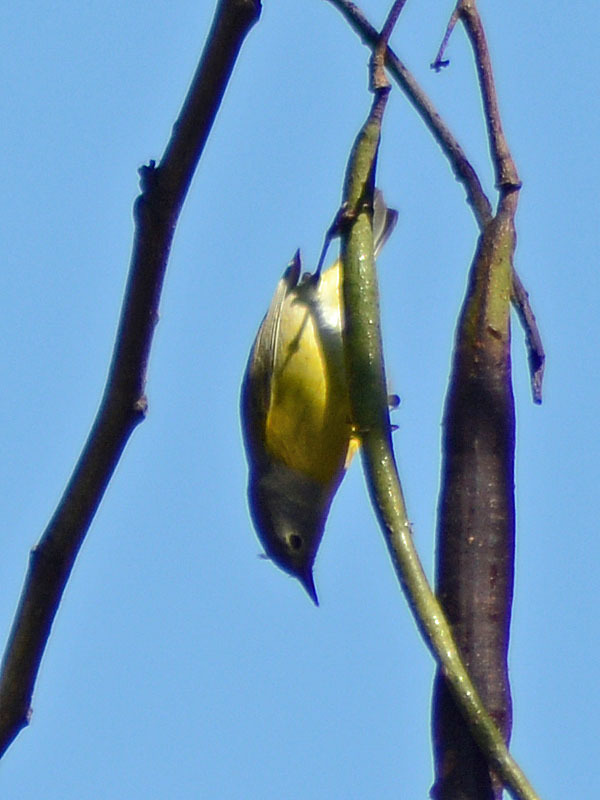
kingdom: Animalia
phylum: Chordata
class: Aves
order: Passeriformes
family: Parulidae
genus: Leiothlypis
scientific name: Leiothlypis ruficapilla
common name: Nashville warbler
